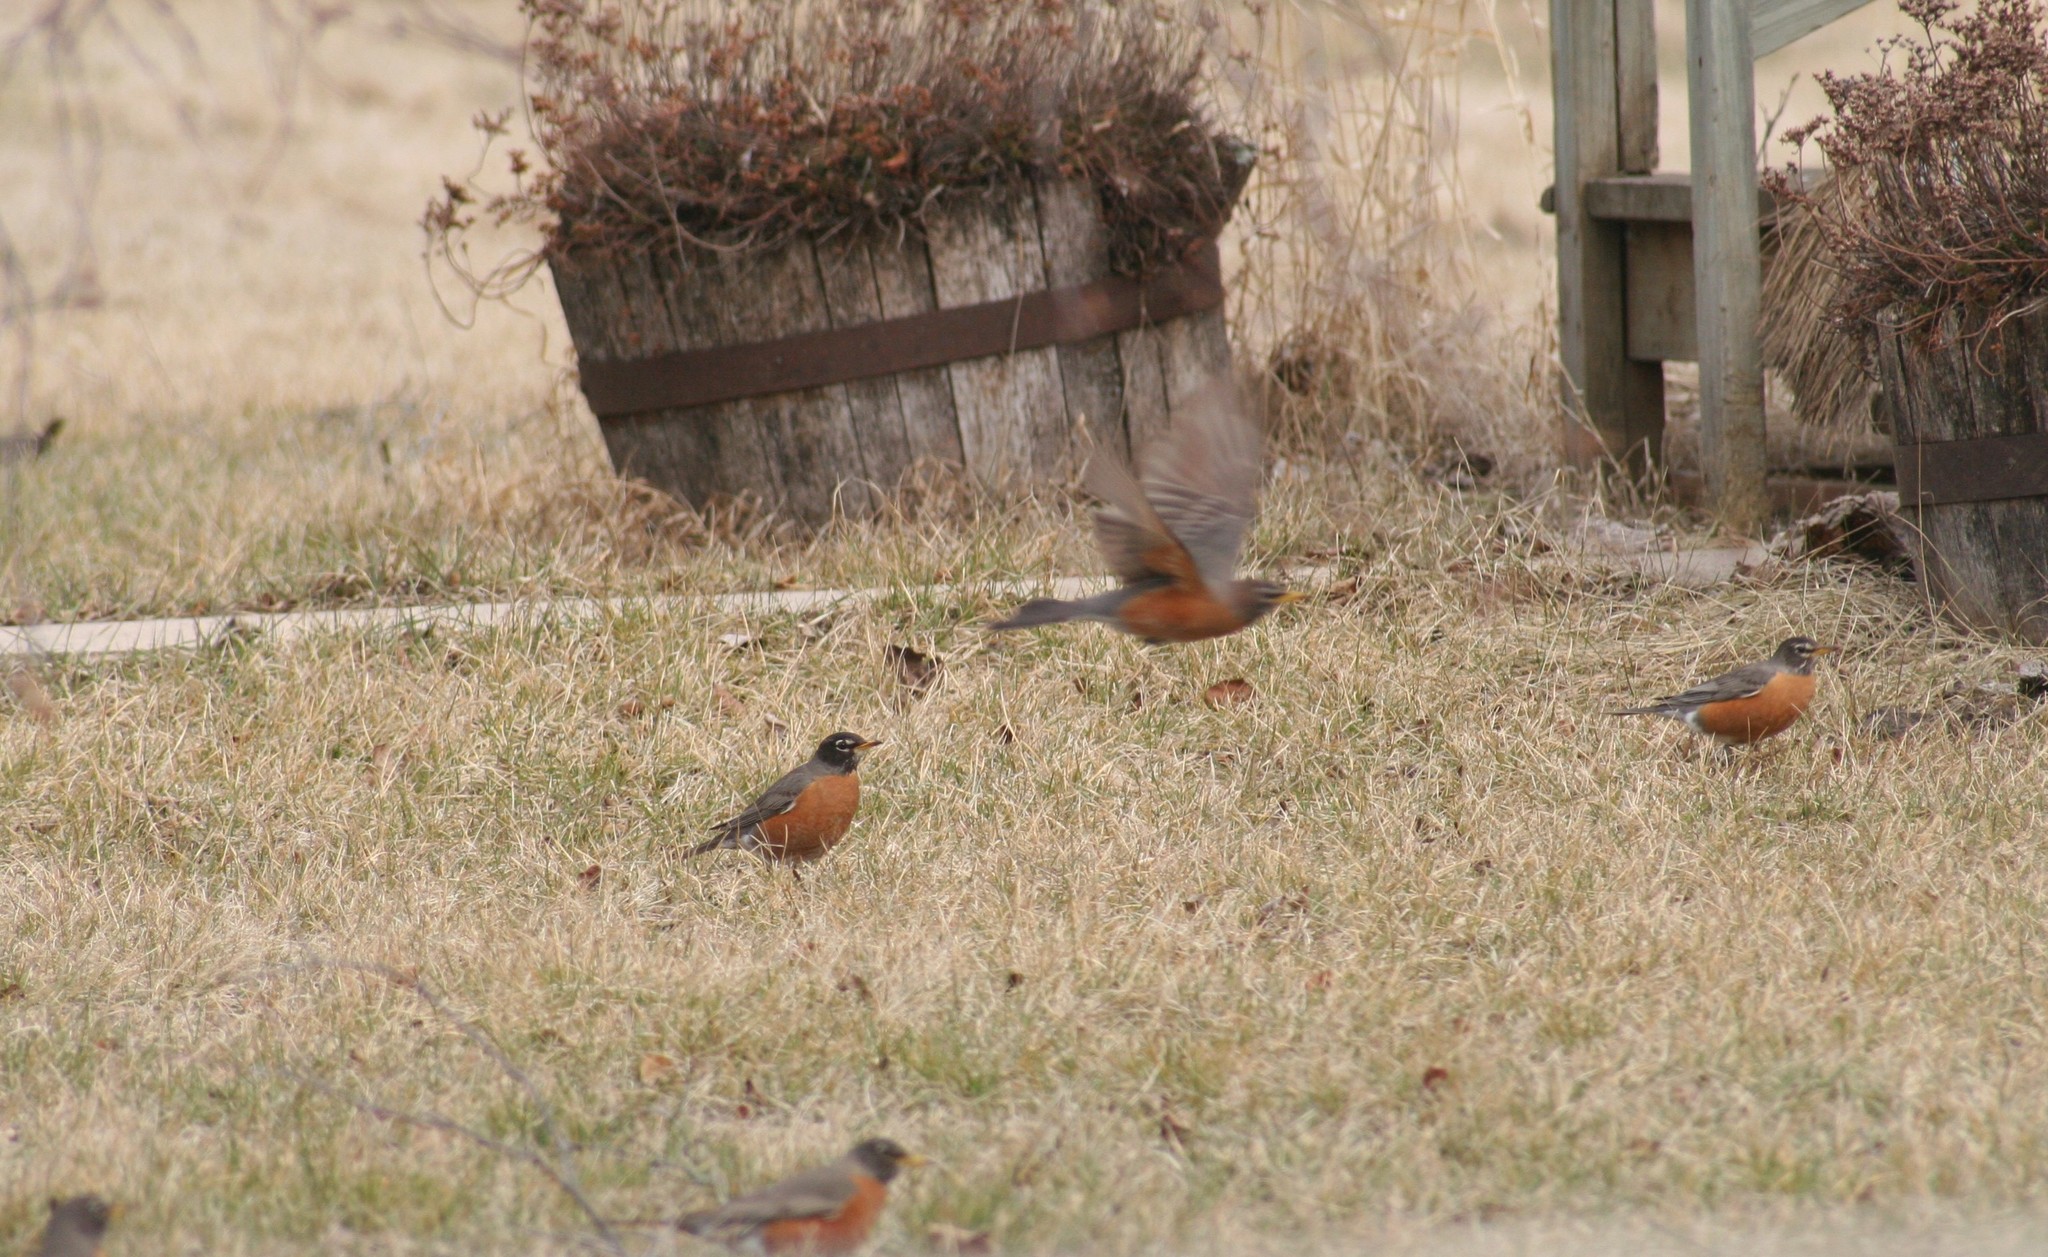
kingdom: Animalia
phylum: Chordata
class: Aves
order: Passeriformes
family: Turdidae
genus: Turdus
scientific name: Turdus migratorius
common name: American robin
